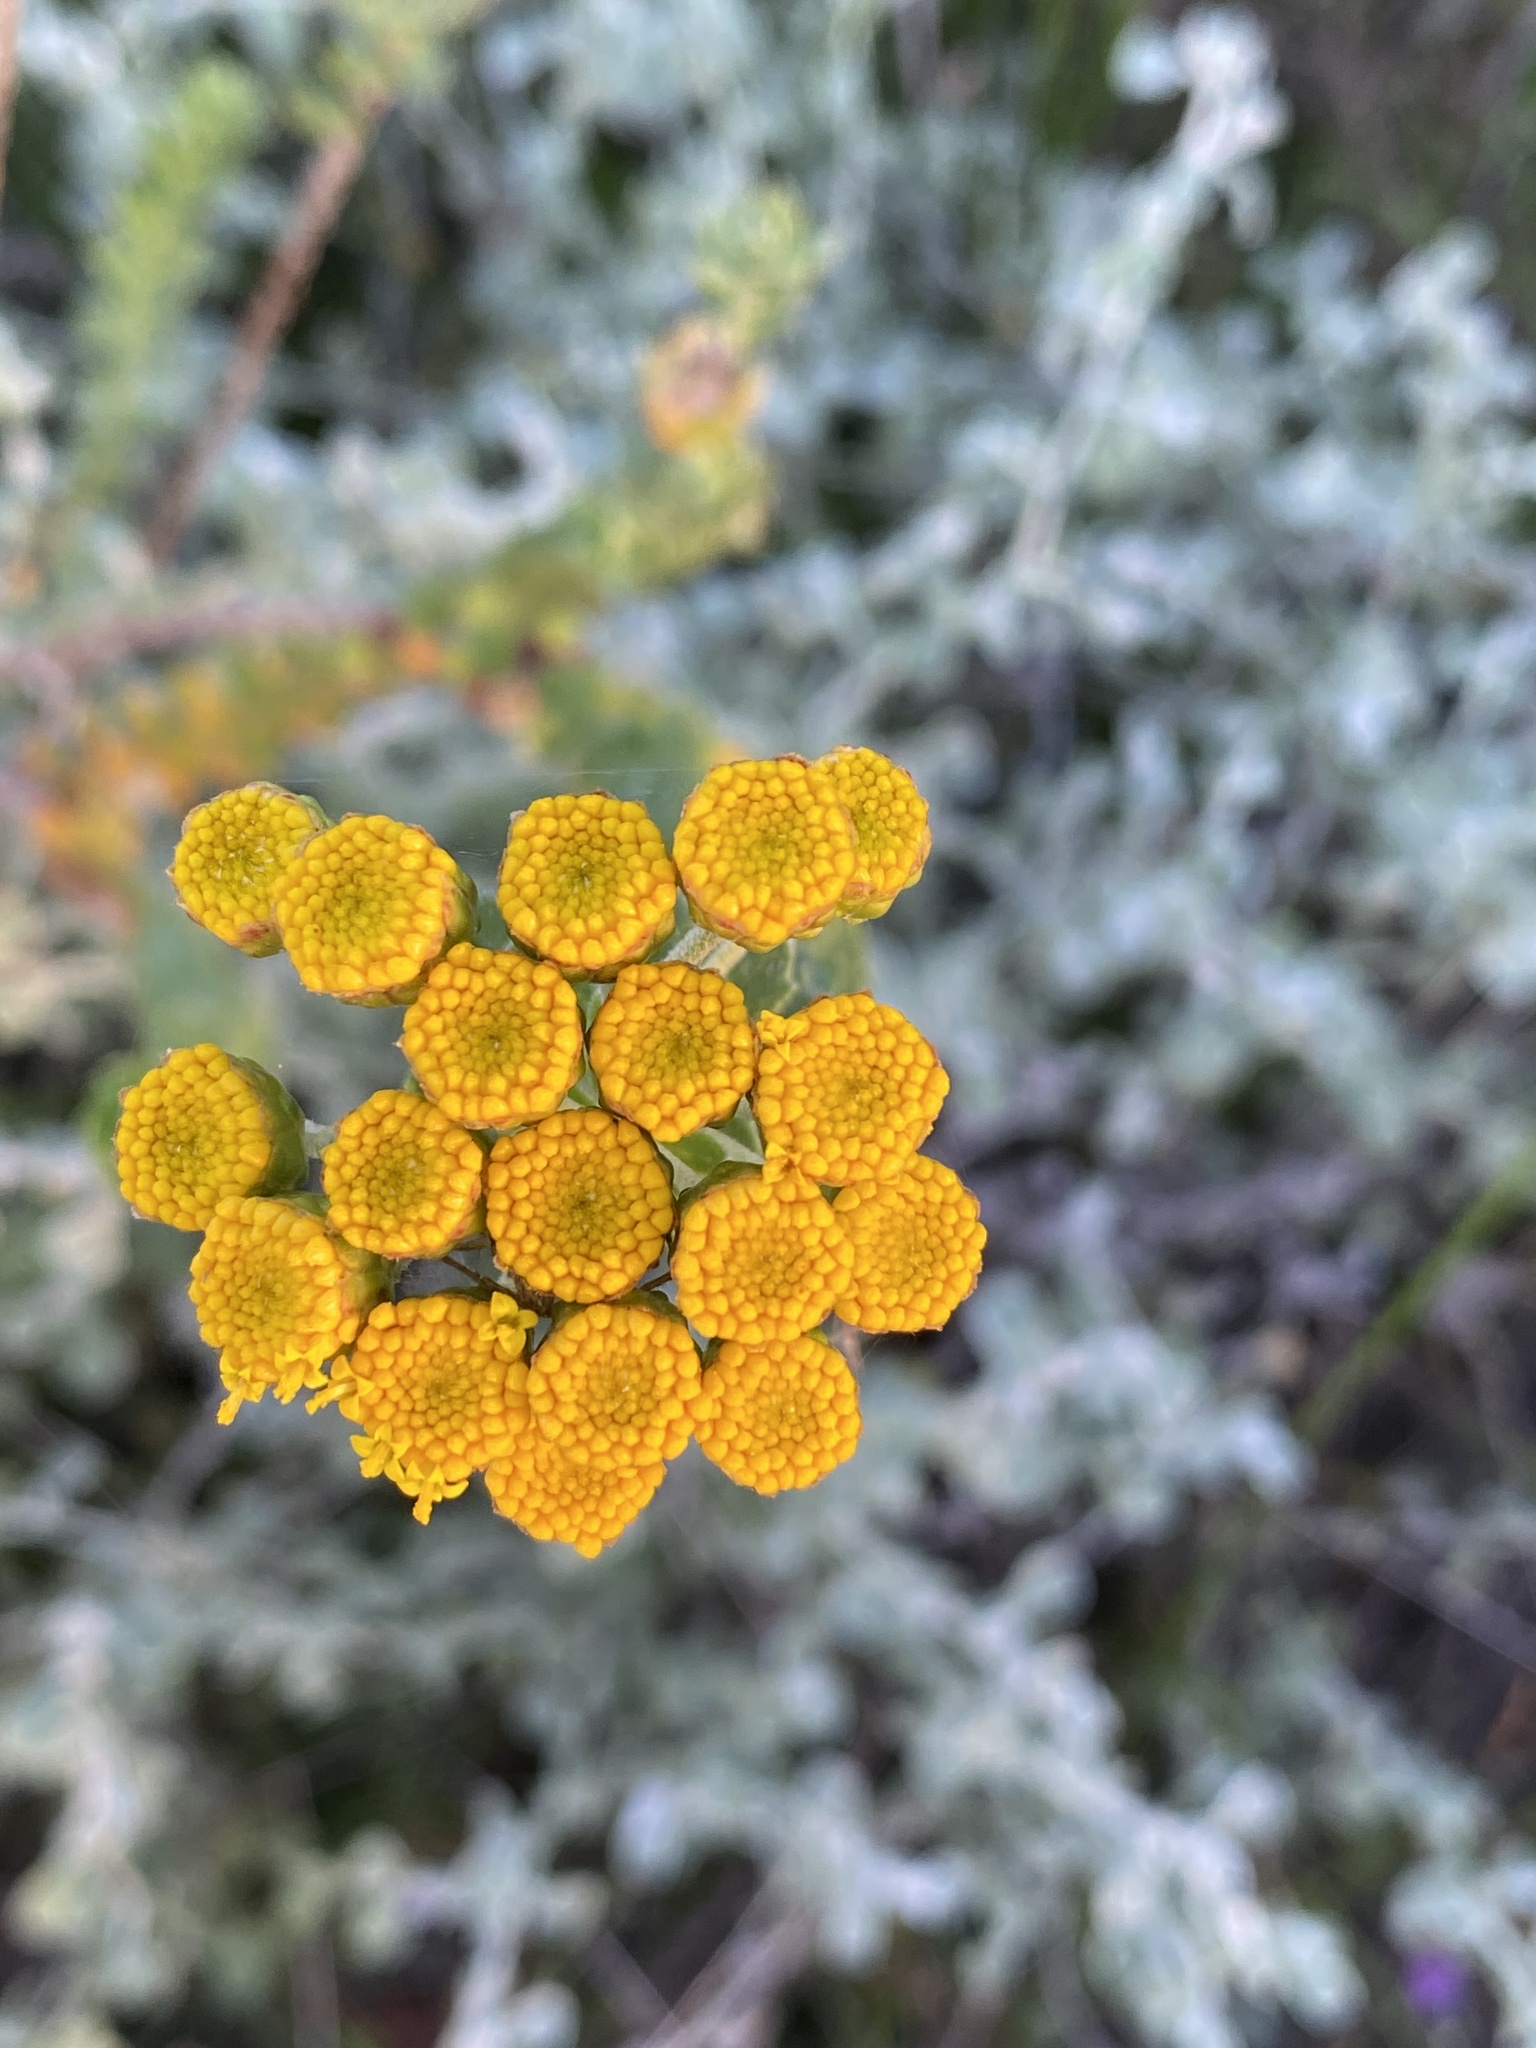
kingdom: Plantae
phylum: Tracheophyta
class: Magnoliopsida
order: Asterales
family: Asteraceae
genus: Athanasia
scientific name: Athanasia trifurcata
